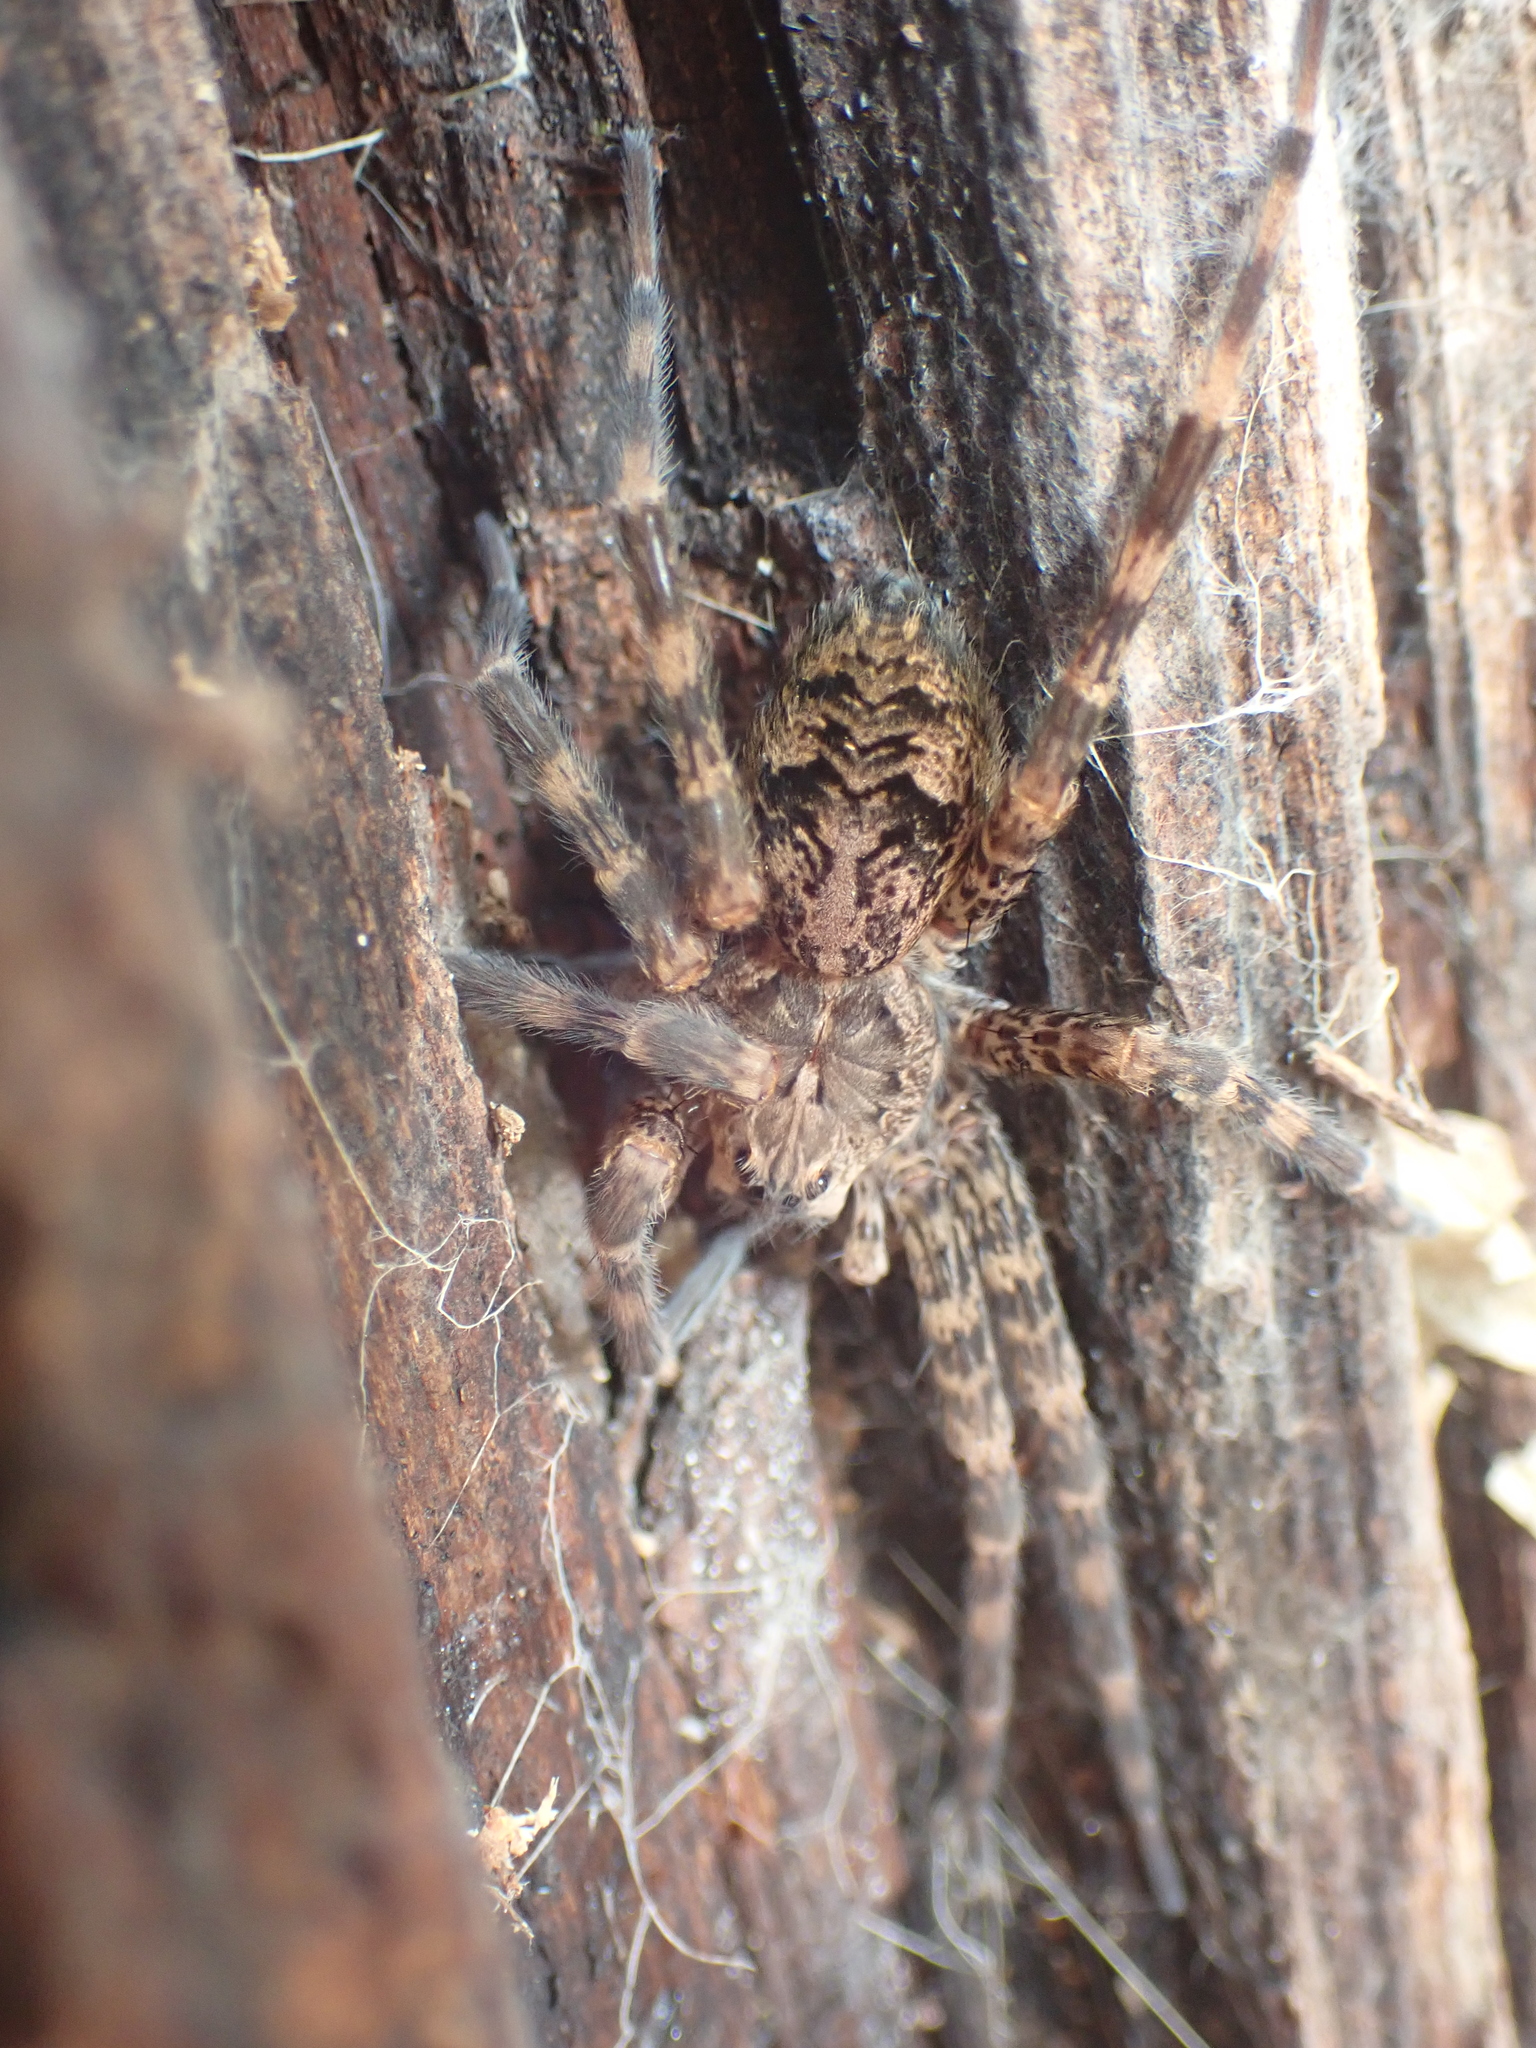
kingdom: Animalia
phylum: Arthropoda
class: Arachnida
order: Araneae
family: Pisauridae
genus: Dolomedes
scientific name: Dolomedes tenebrosus
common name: Dark fishing spider
